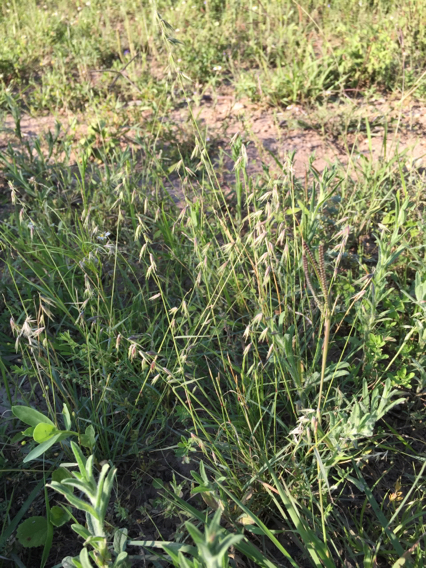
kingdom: Plantae
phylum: Tracheophyta
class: Liliopsida
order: Poales
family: Poaceae
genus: Bouteloua
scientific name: Bouteloua rigidiseta
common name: Texas grama
